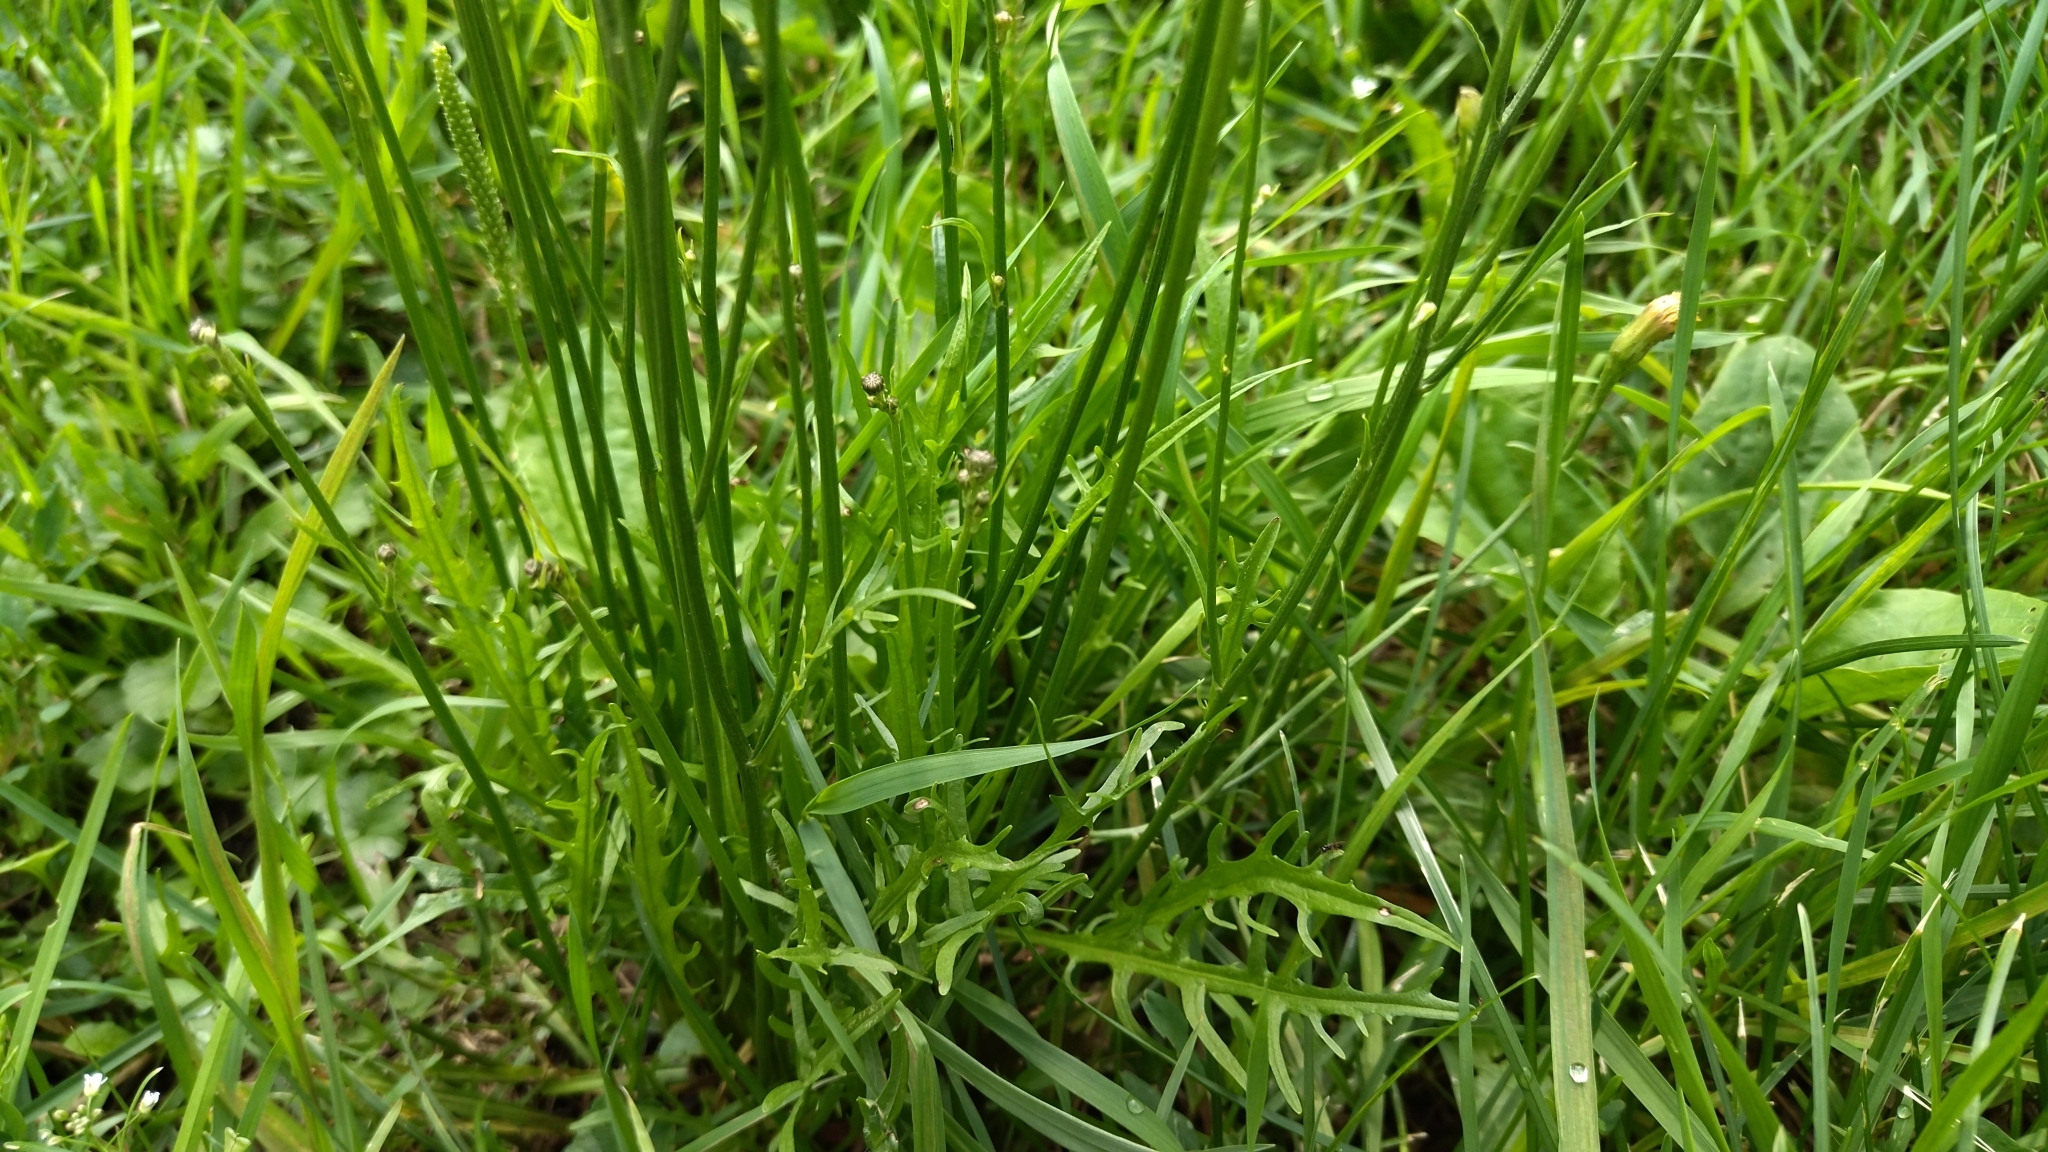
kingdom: Plantae
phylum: Tracheophyta
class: Magnoliopsida
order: Asterales
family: Asteraceae
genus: Scorzoneroides
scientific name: Scorzoneroides autumnalis
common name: Autumn hawkbit
